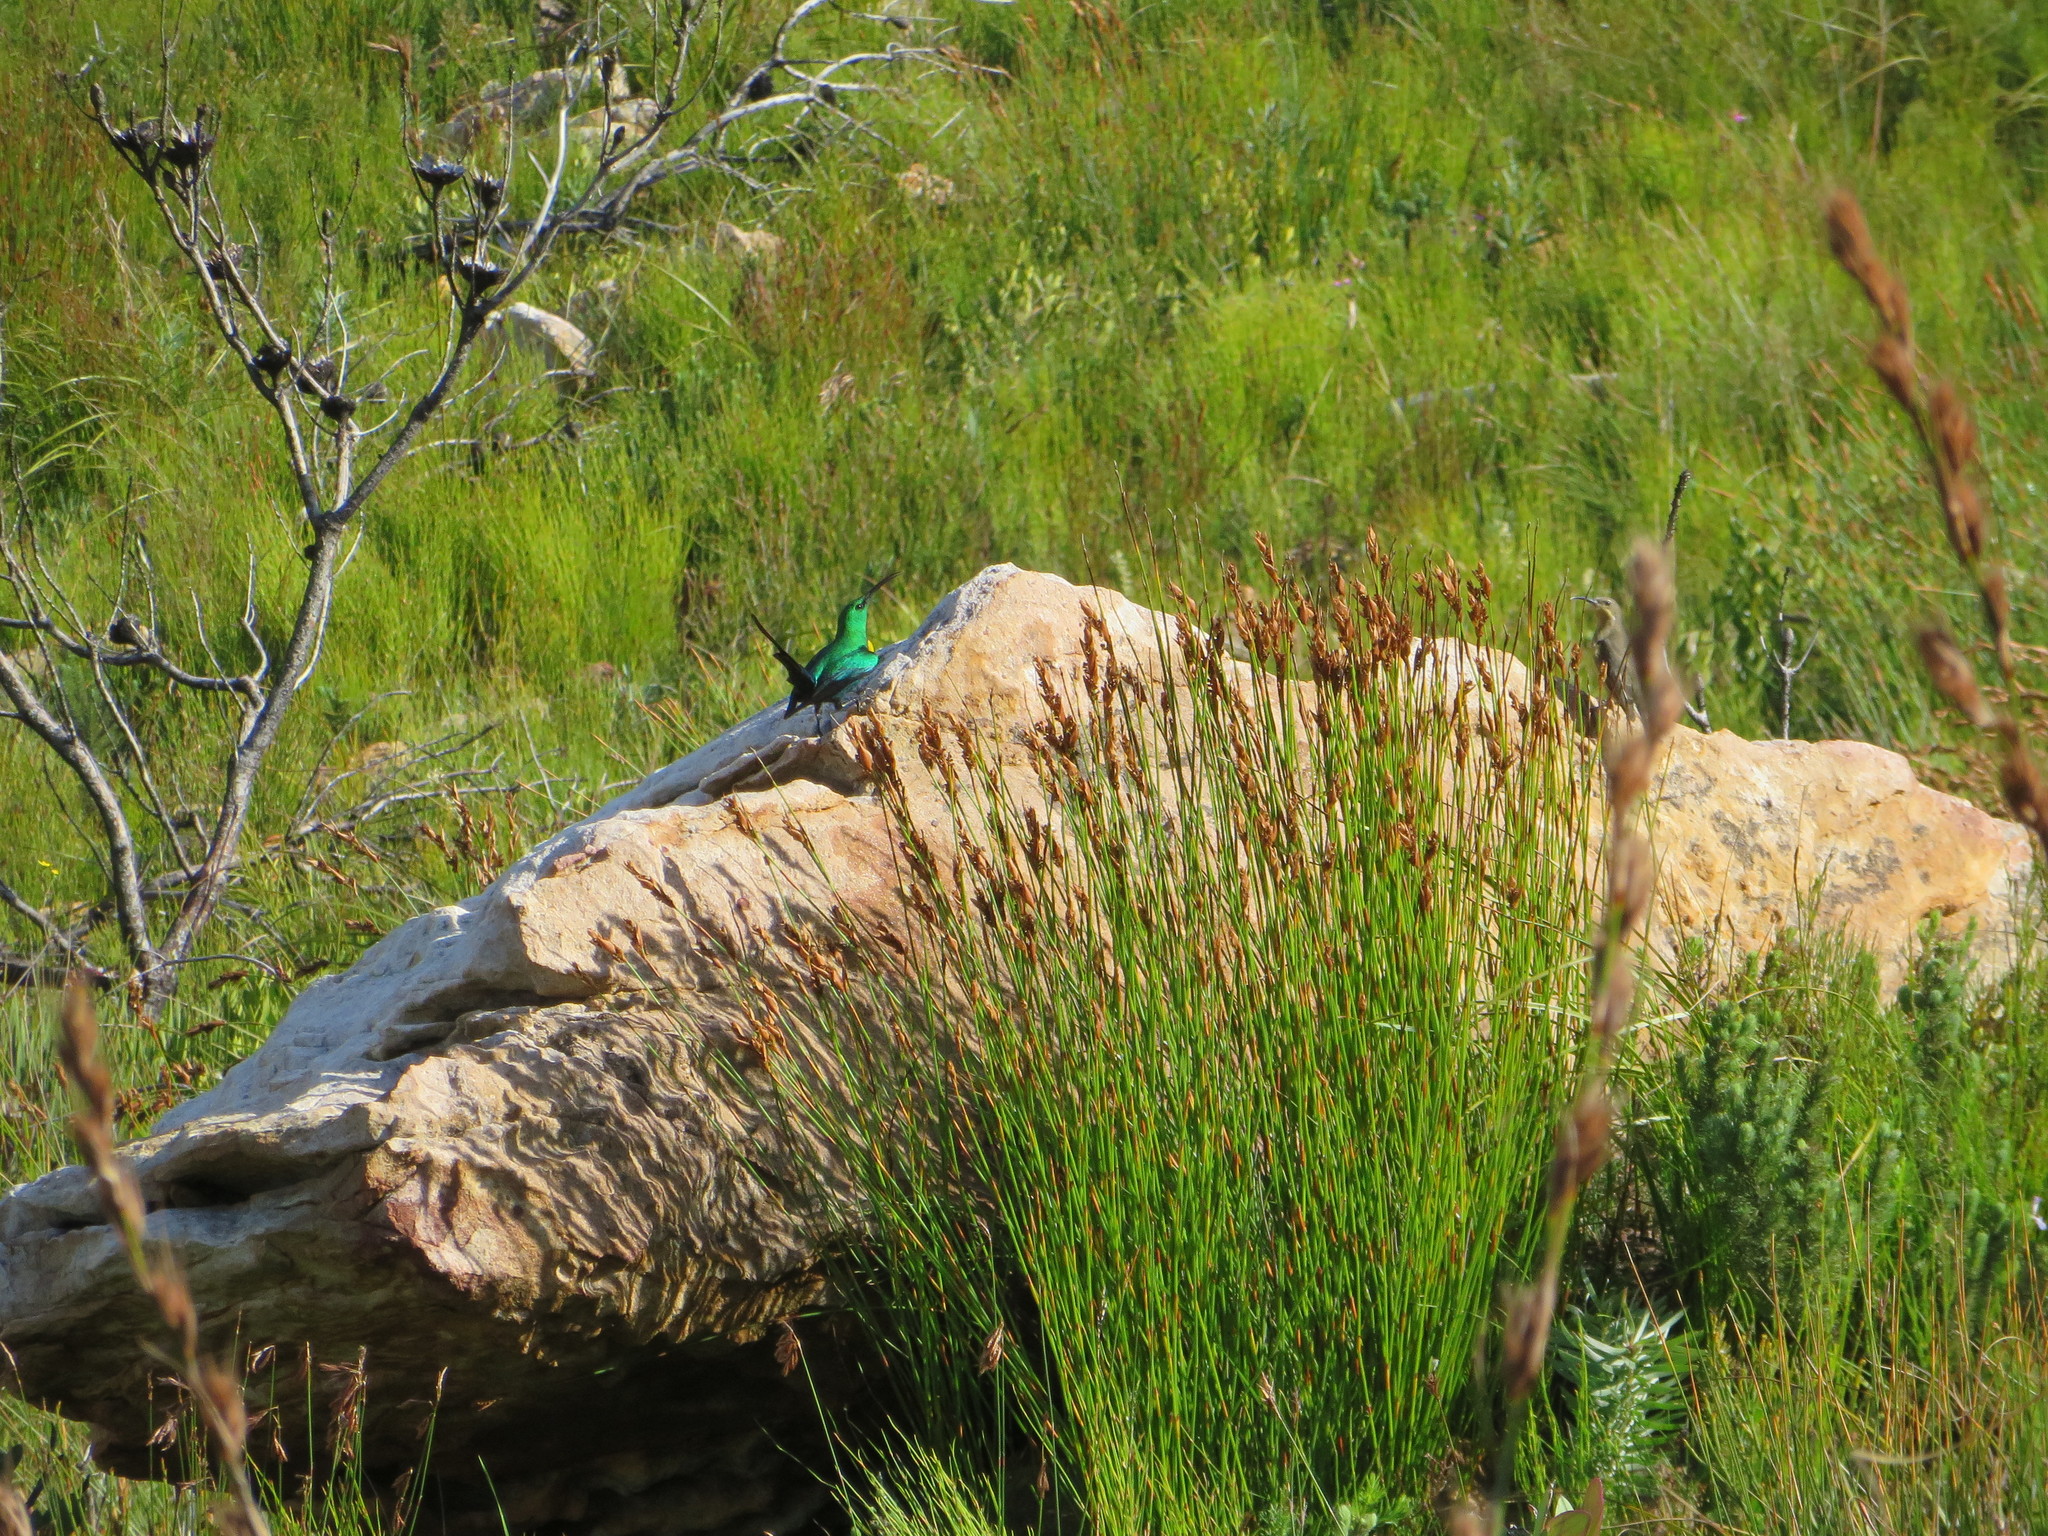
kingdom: Animalia
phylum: Chordata
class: Aves
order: Passeriformes
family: Nectariniidae
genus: Nectarinia
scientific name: Nectarinia famosa
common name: Malachite sunbird
